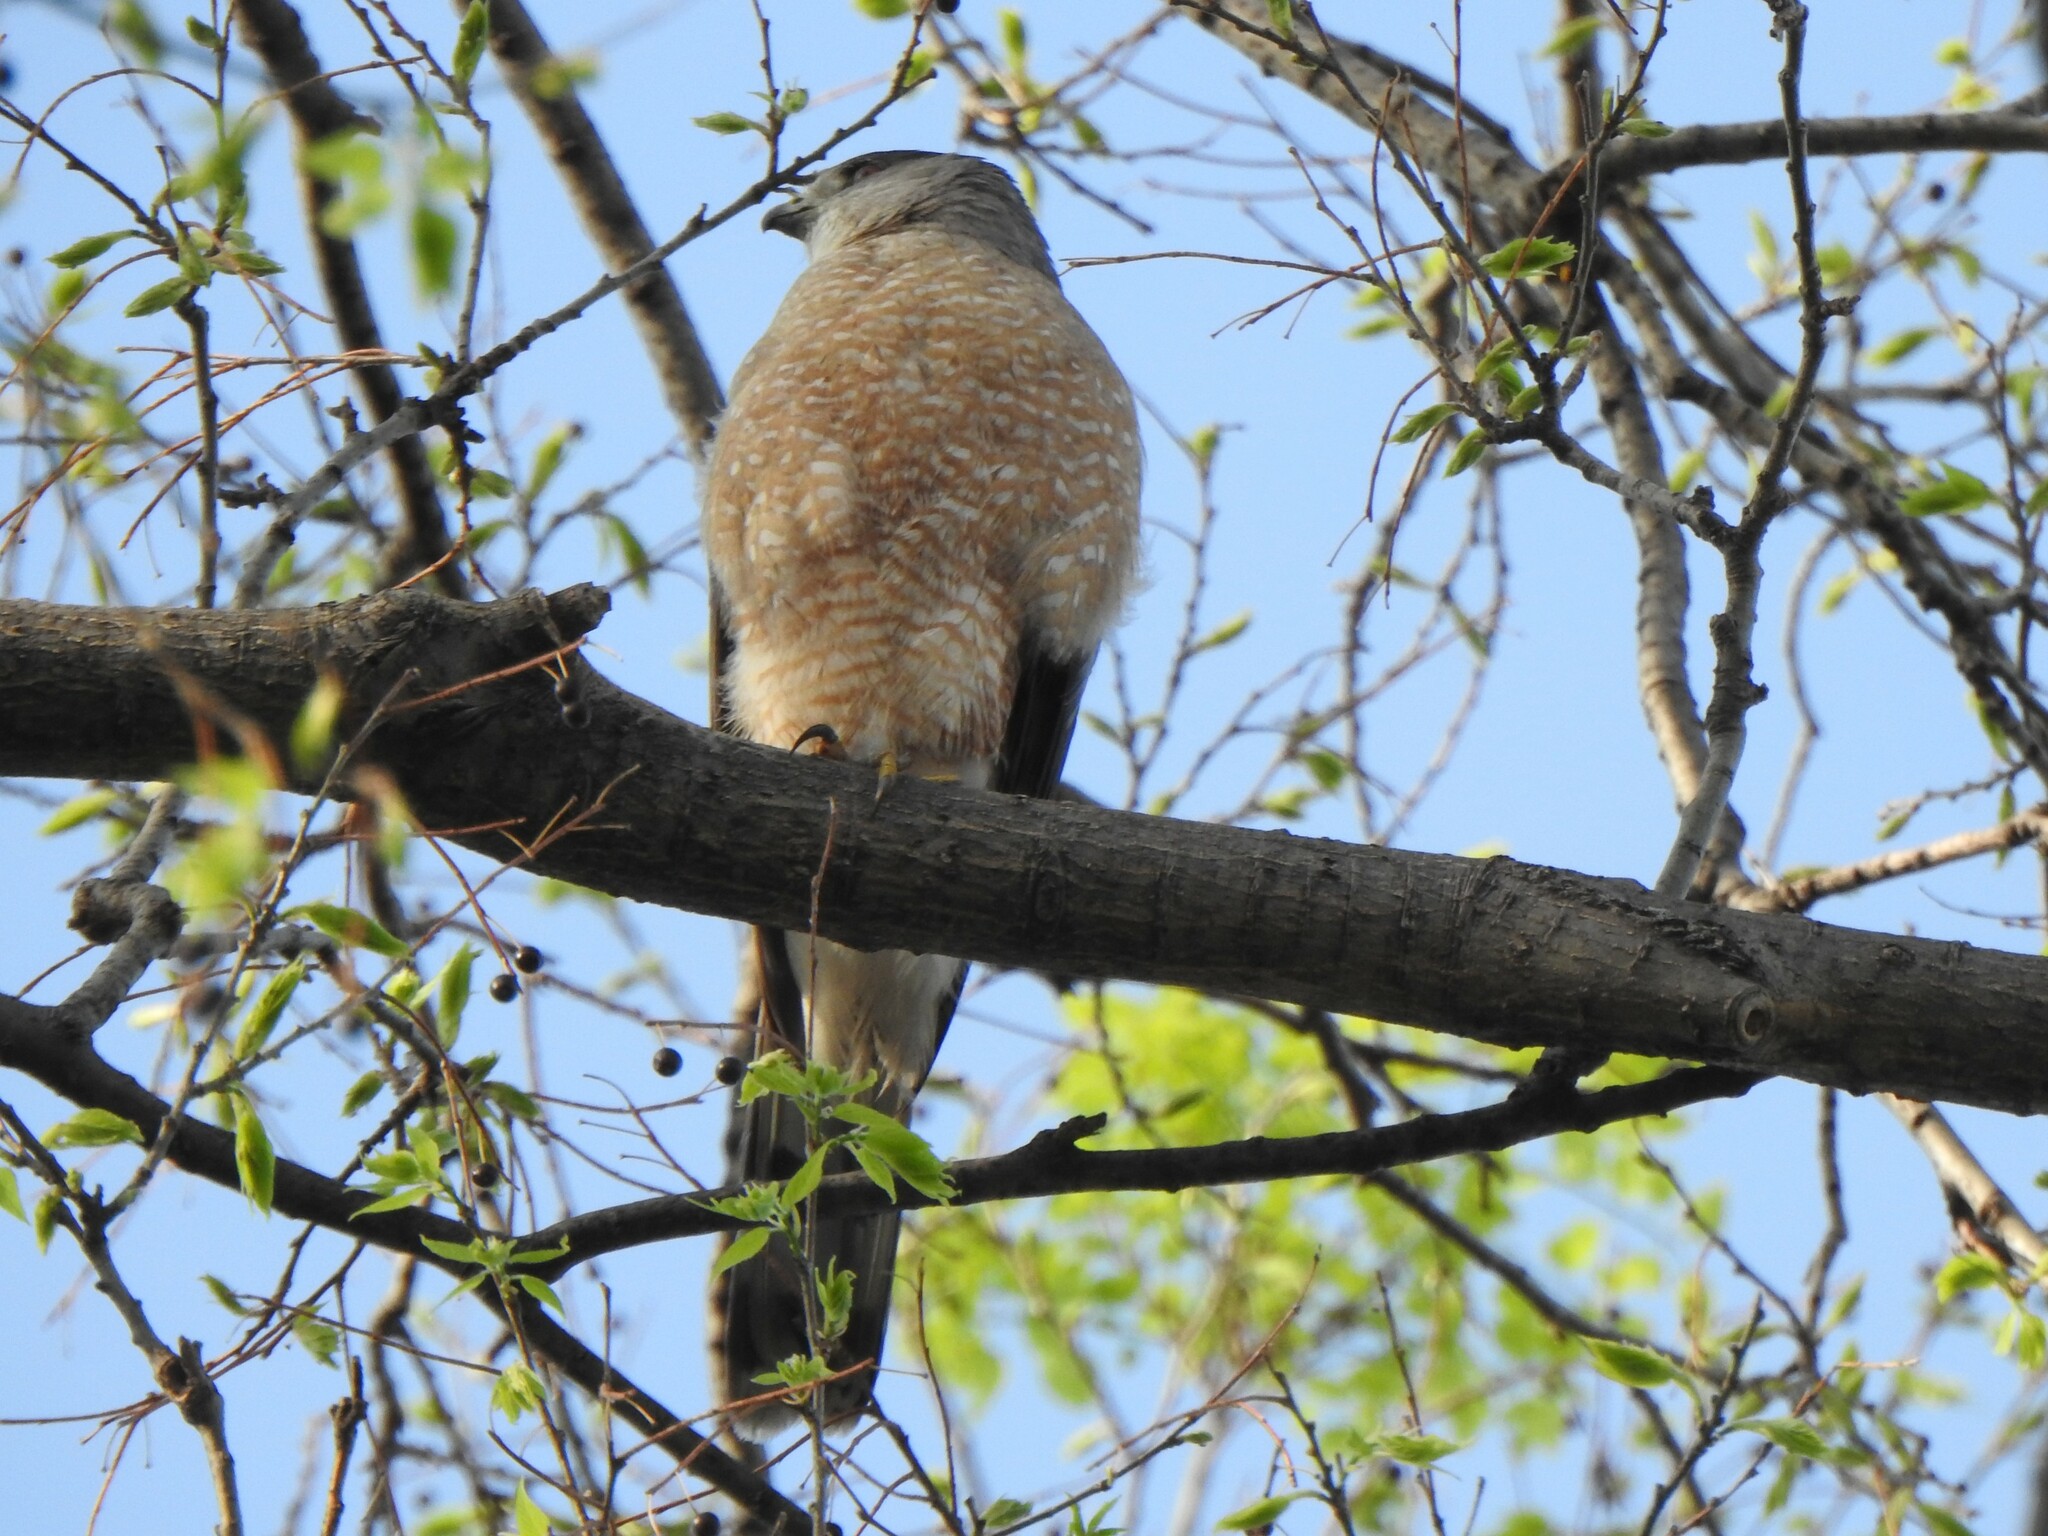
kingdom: Animalia
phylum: Chordata
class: Aves
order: Accipitriformes
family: Accipitridae
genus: Accipiter
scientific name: Accipiter cooperii
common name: Cooper's hawk
